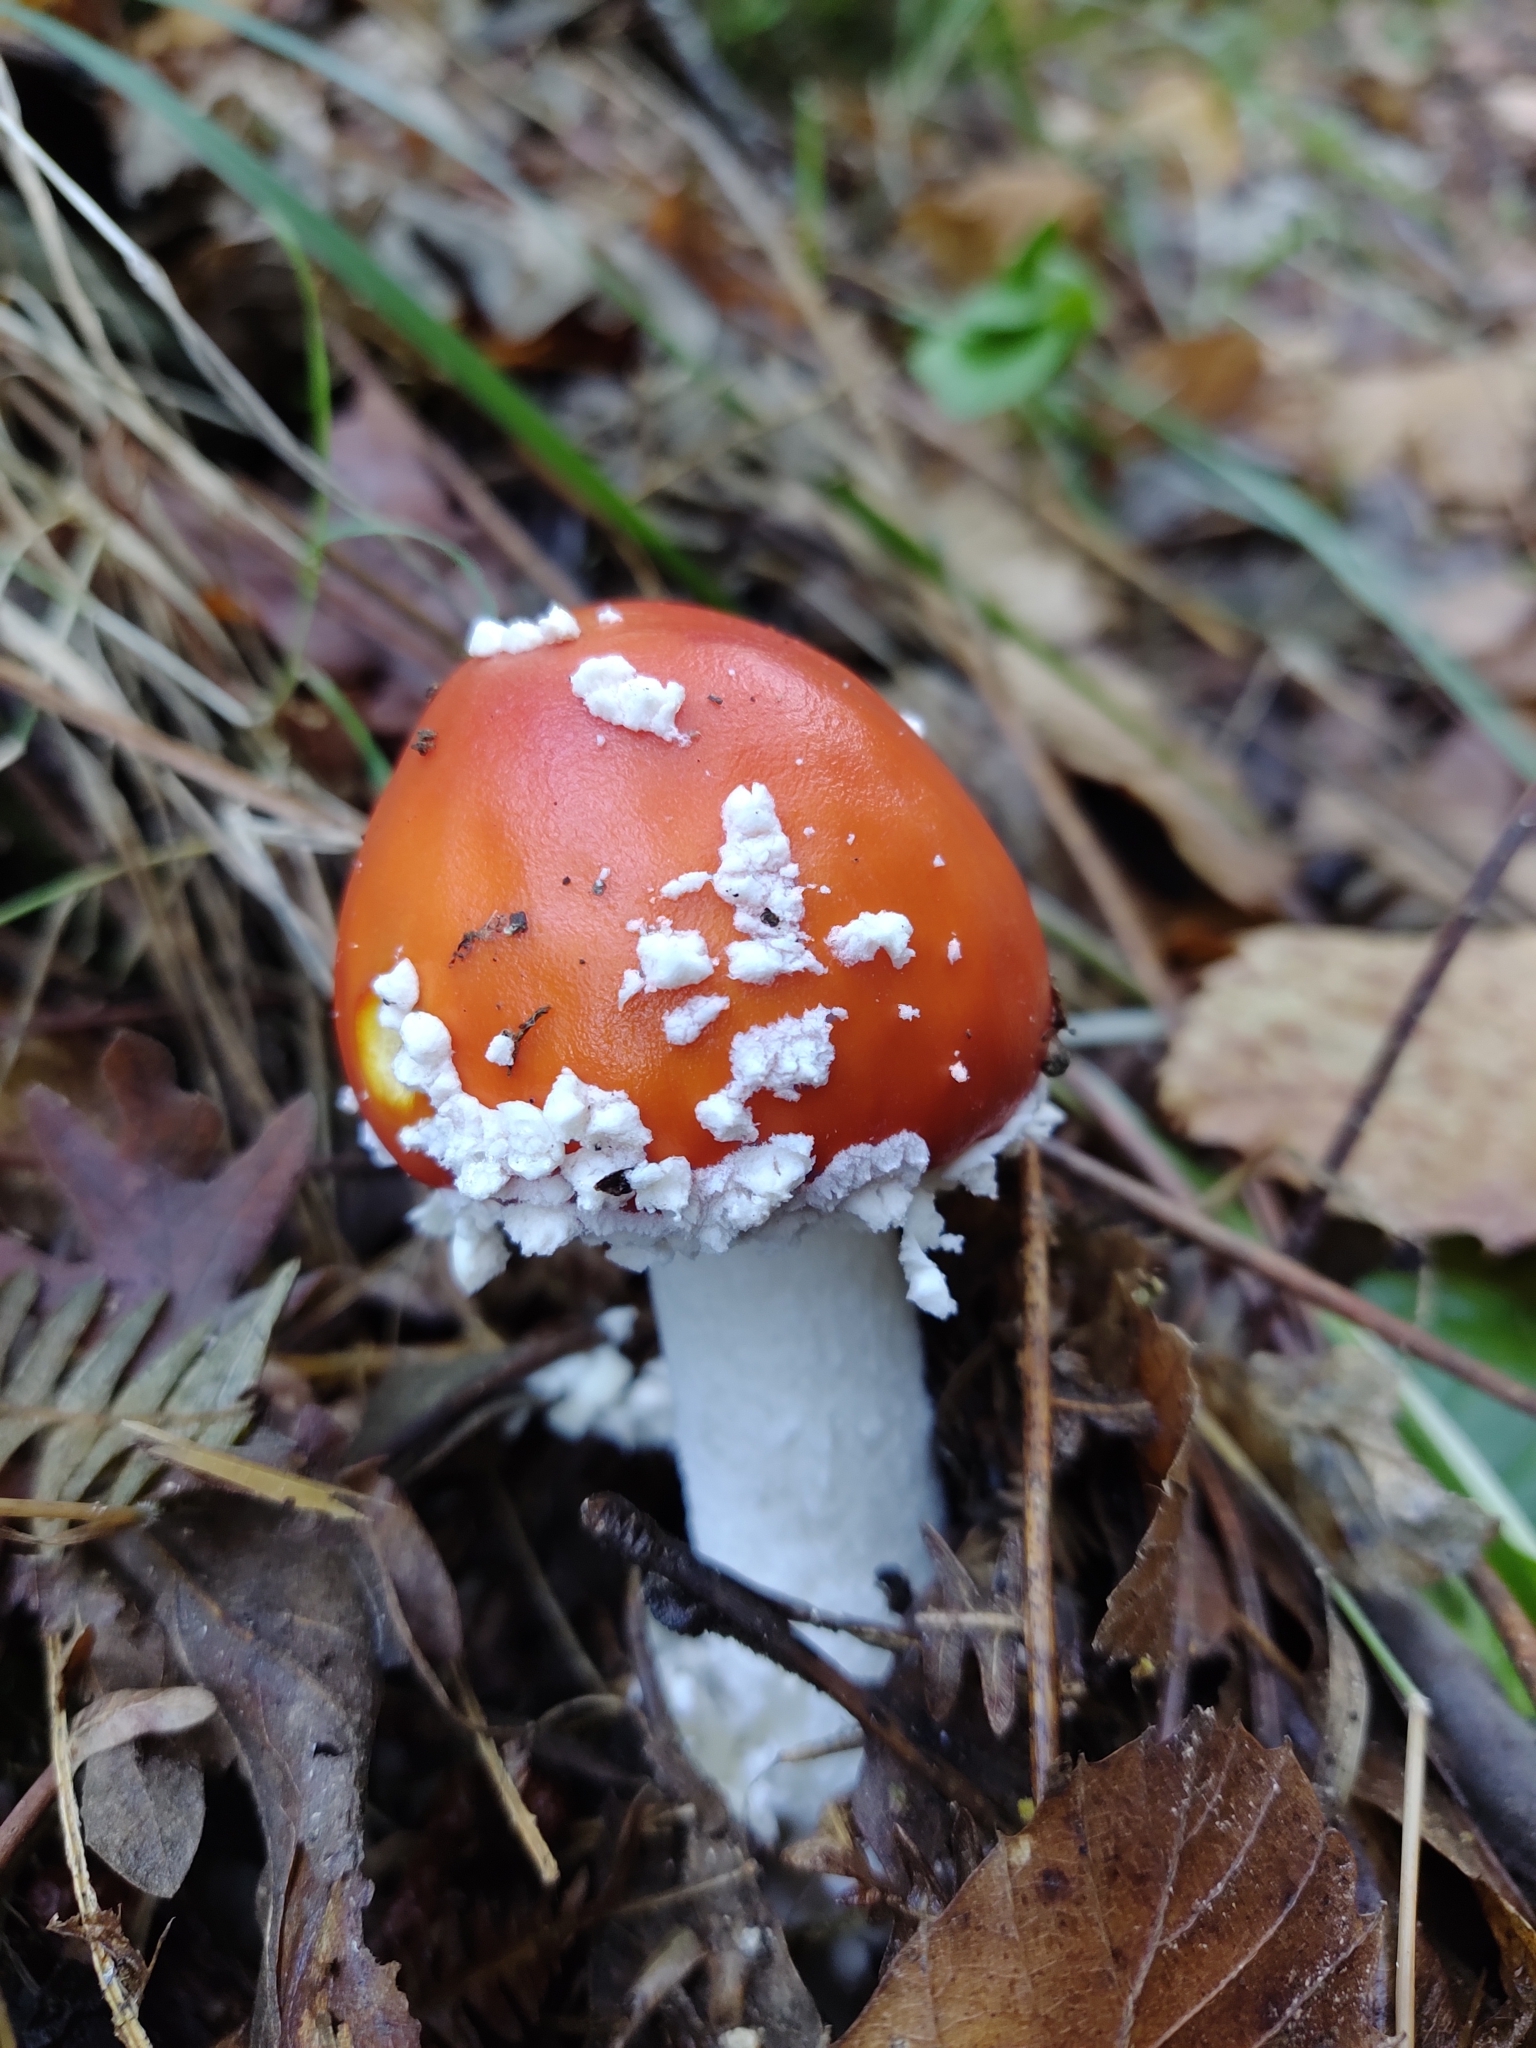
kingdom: Fungi
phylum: Basidiomycota
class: Agaricomycetes
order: Agaricales
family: Amanitaceae
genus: Amanita
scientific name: Amanita muscaria
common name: Fly agaric
